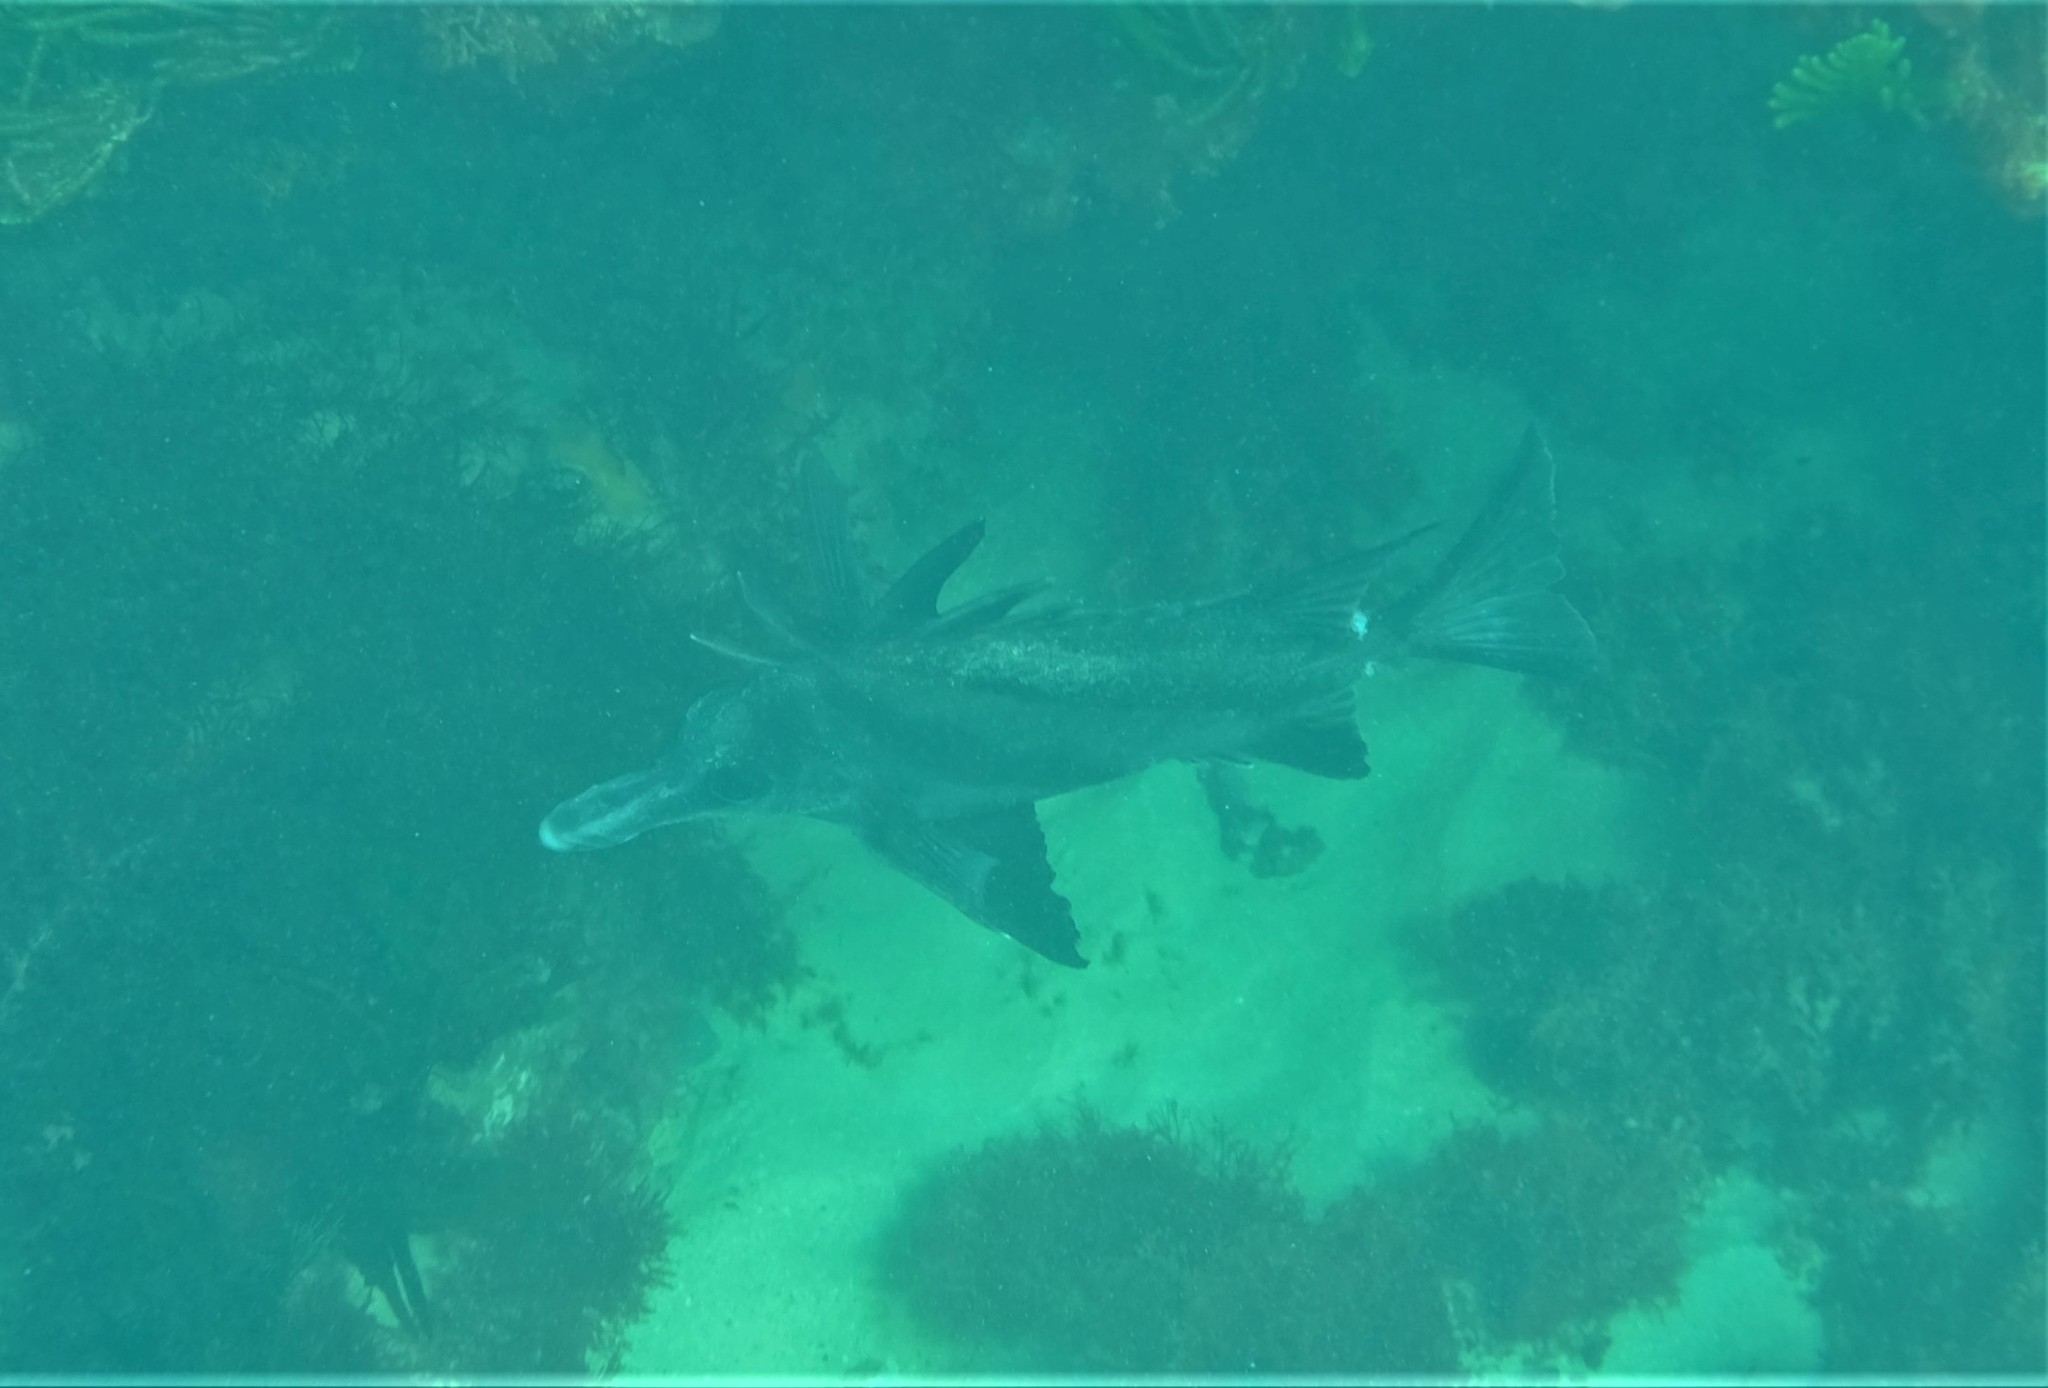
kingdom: Animalia
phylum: Chordata
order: Perciformes
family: Pentacerotidae
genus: Pentaceropsis
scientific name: Pentaceropsis recurvirostris
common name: Longsnout boarfish
